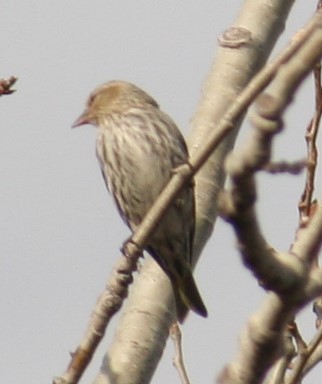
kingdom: Animalia
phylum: Chordata
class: Aves
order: Passeriformes
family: Fringillidae
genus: Spinus
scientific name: Spinus pinus
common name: Pine siskin
